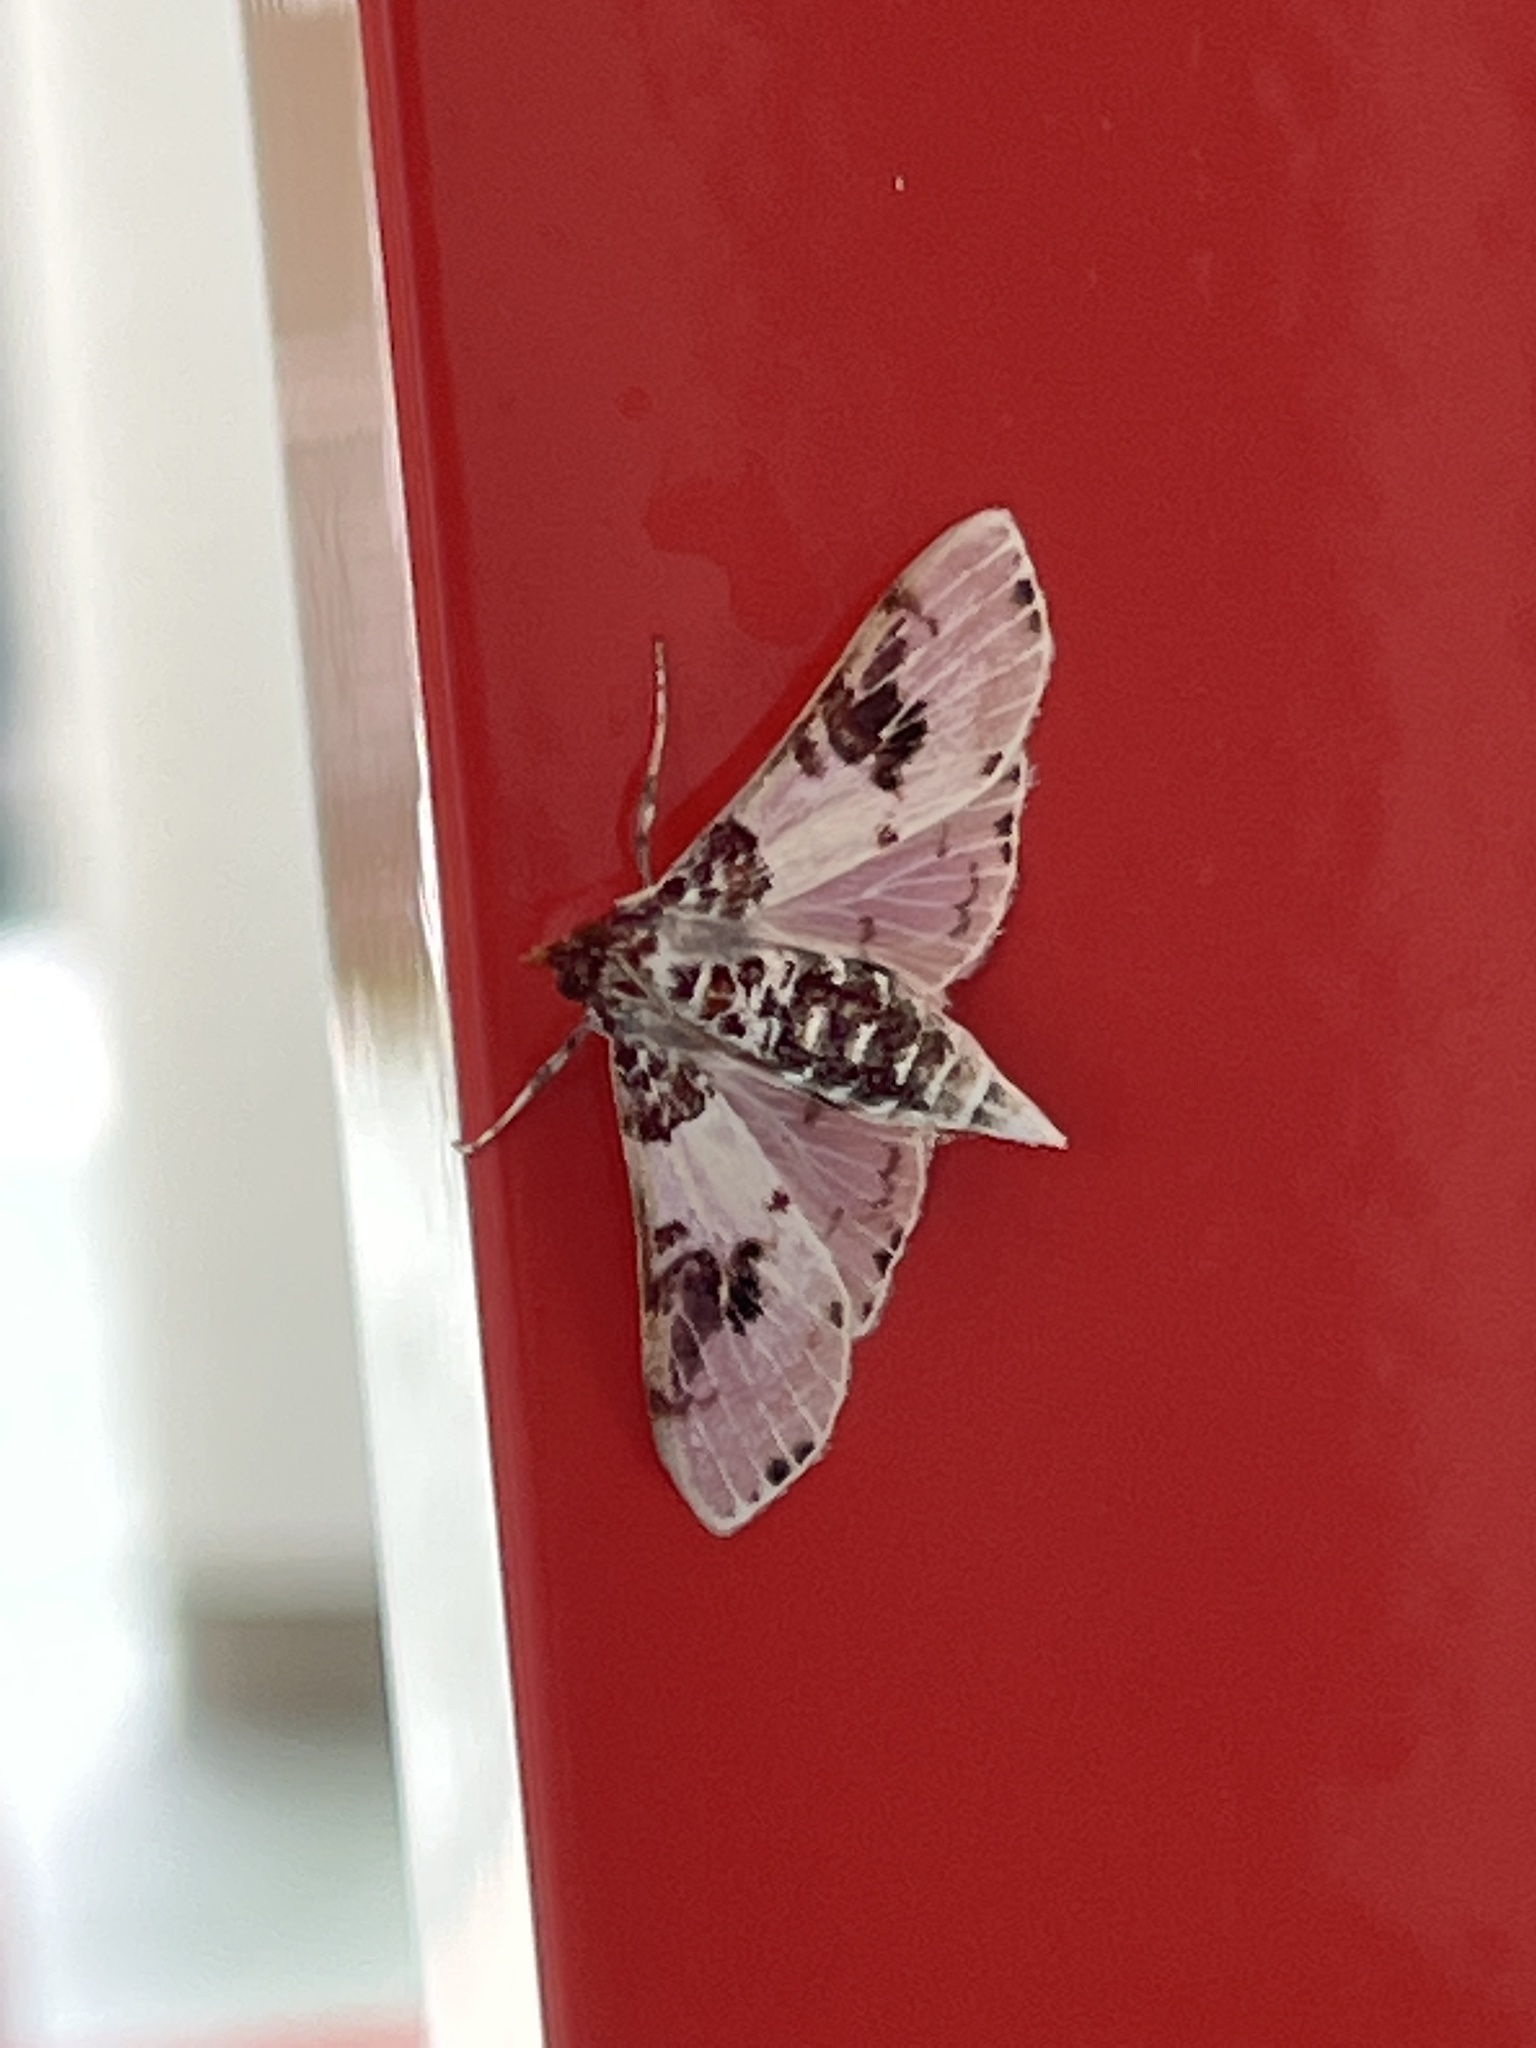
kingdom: Animalia
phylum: Arthropoda
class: Insecta
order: Lepidoptera
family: Crambidae
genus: Azochis
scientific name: Azochis euvexalis
